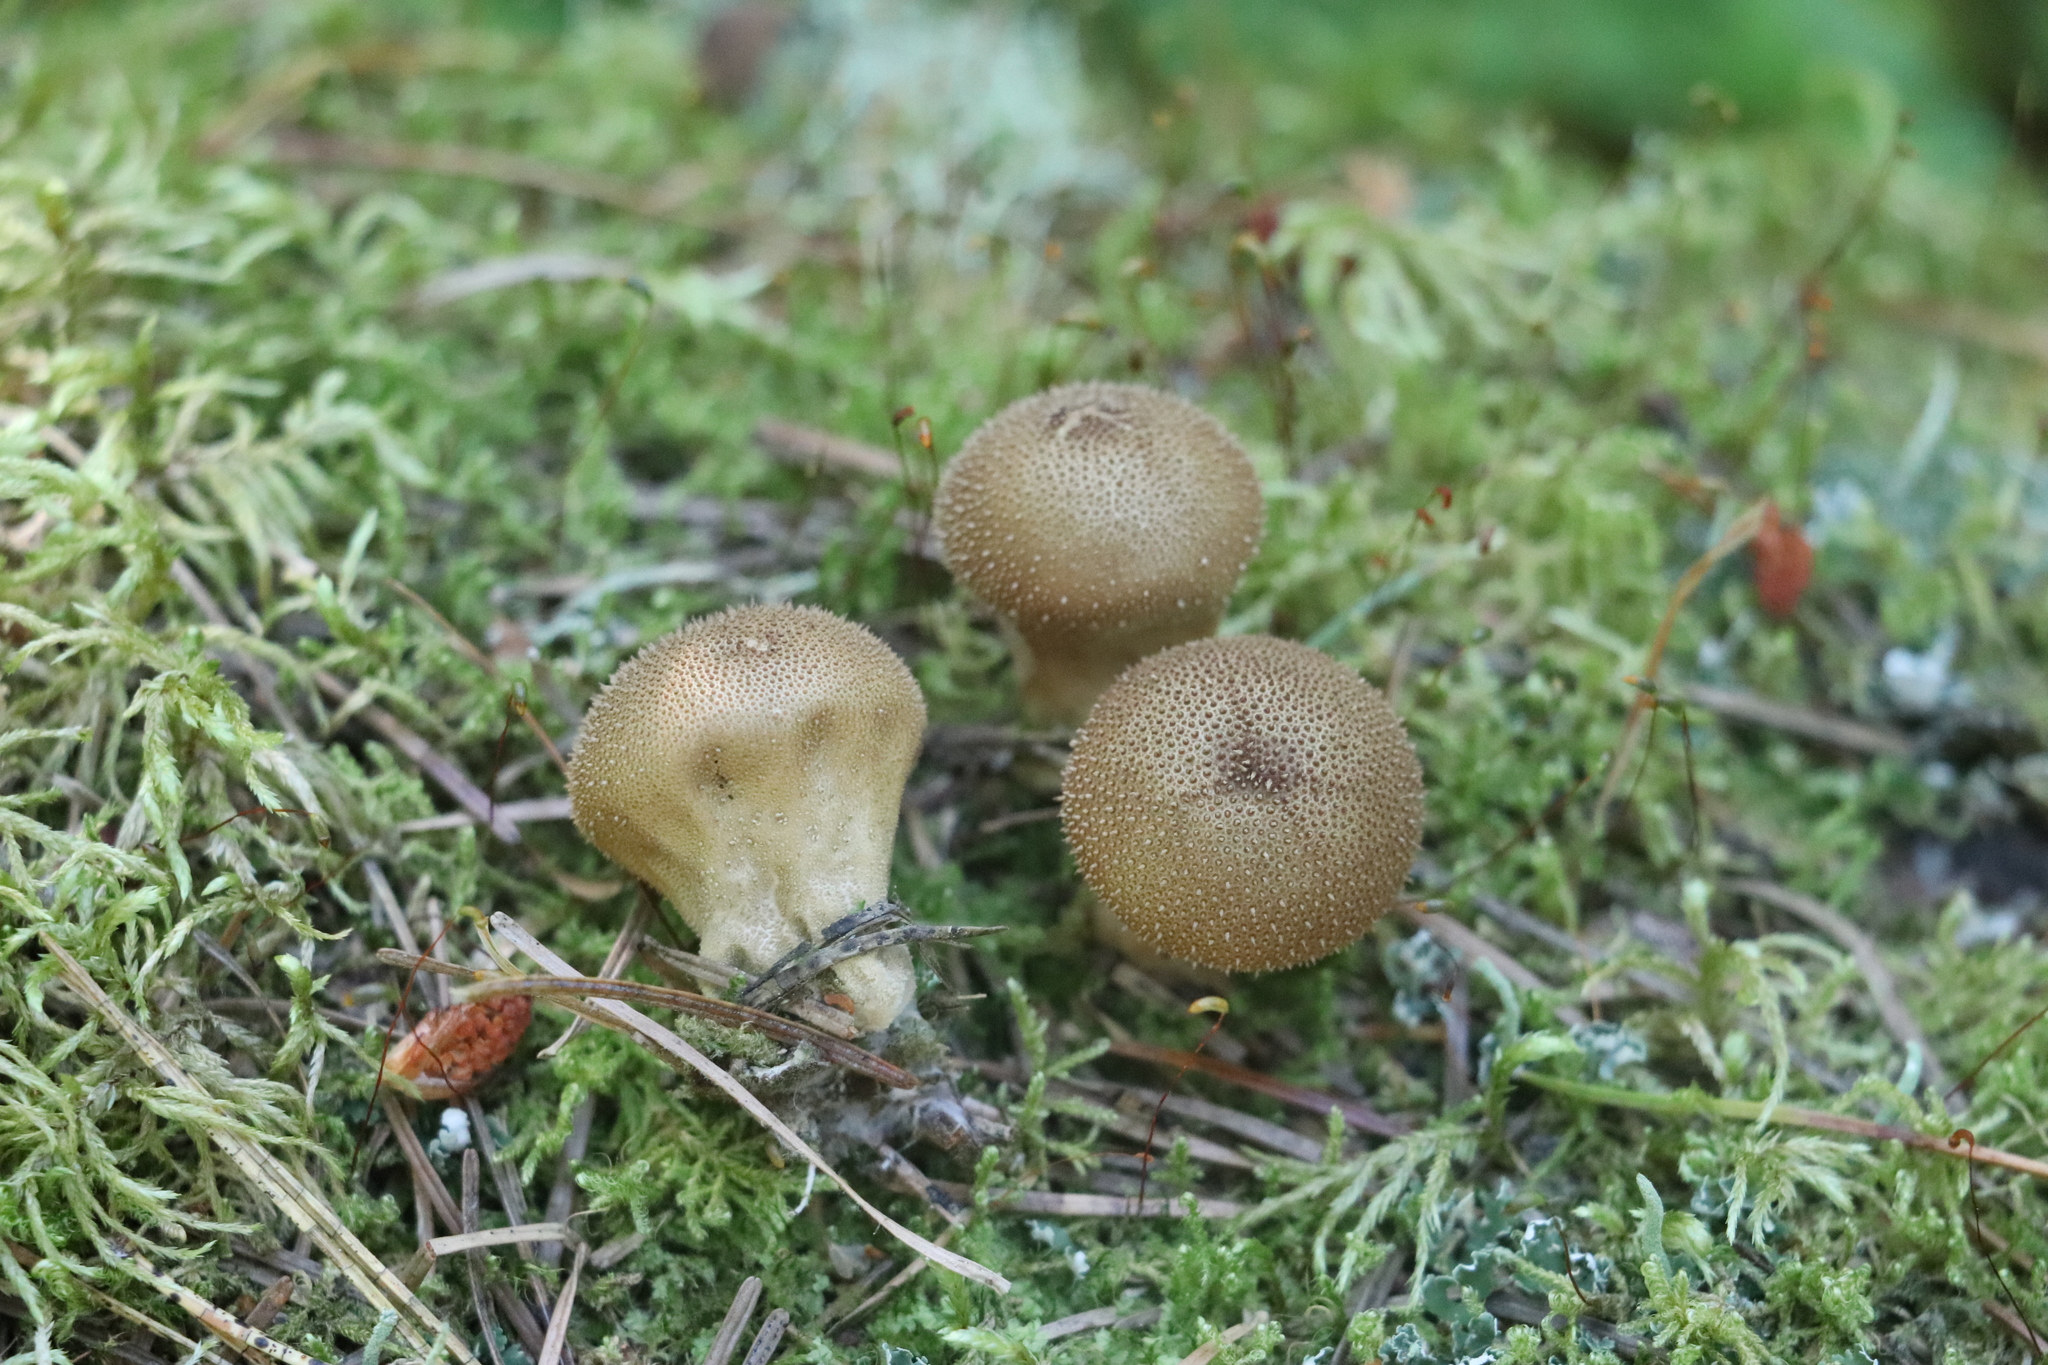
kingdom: Fungi
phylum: Basidiomycota
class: Agaricomycetes
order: Agaricales
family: Lycoperdaceae
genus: Lycoperdon
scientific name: Lycoperdon perlatum
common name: Common puffball
